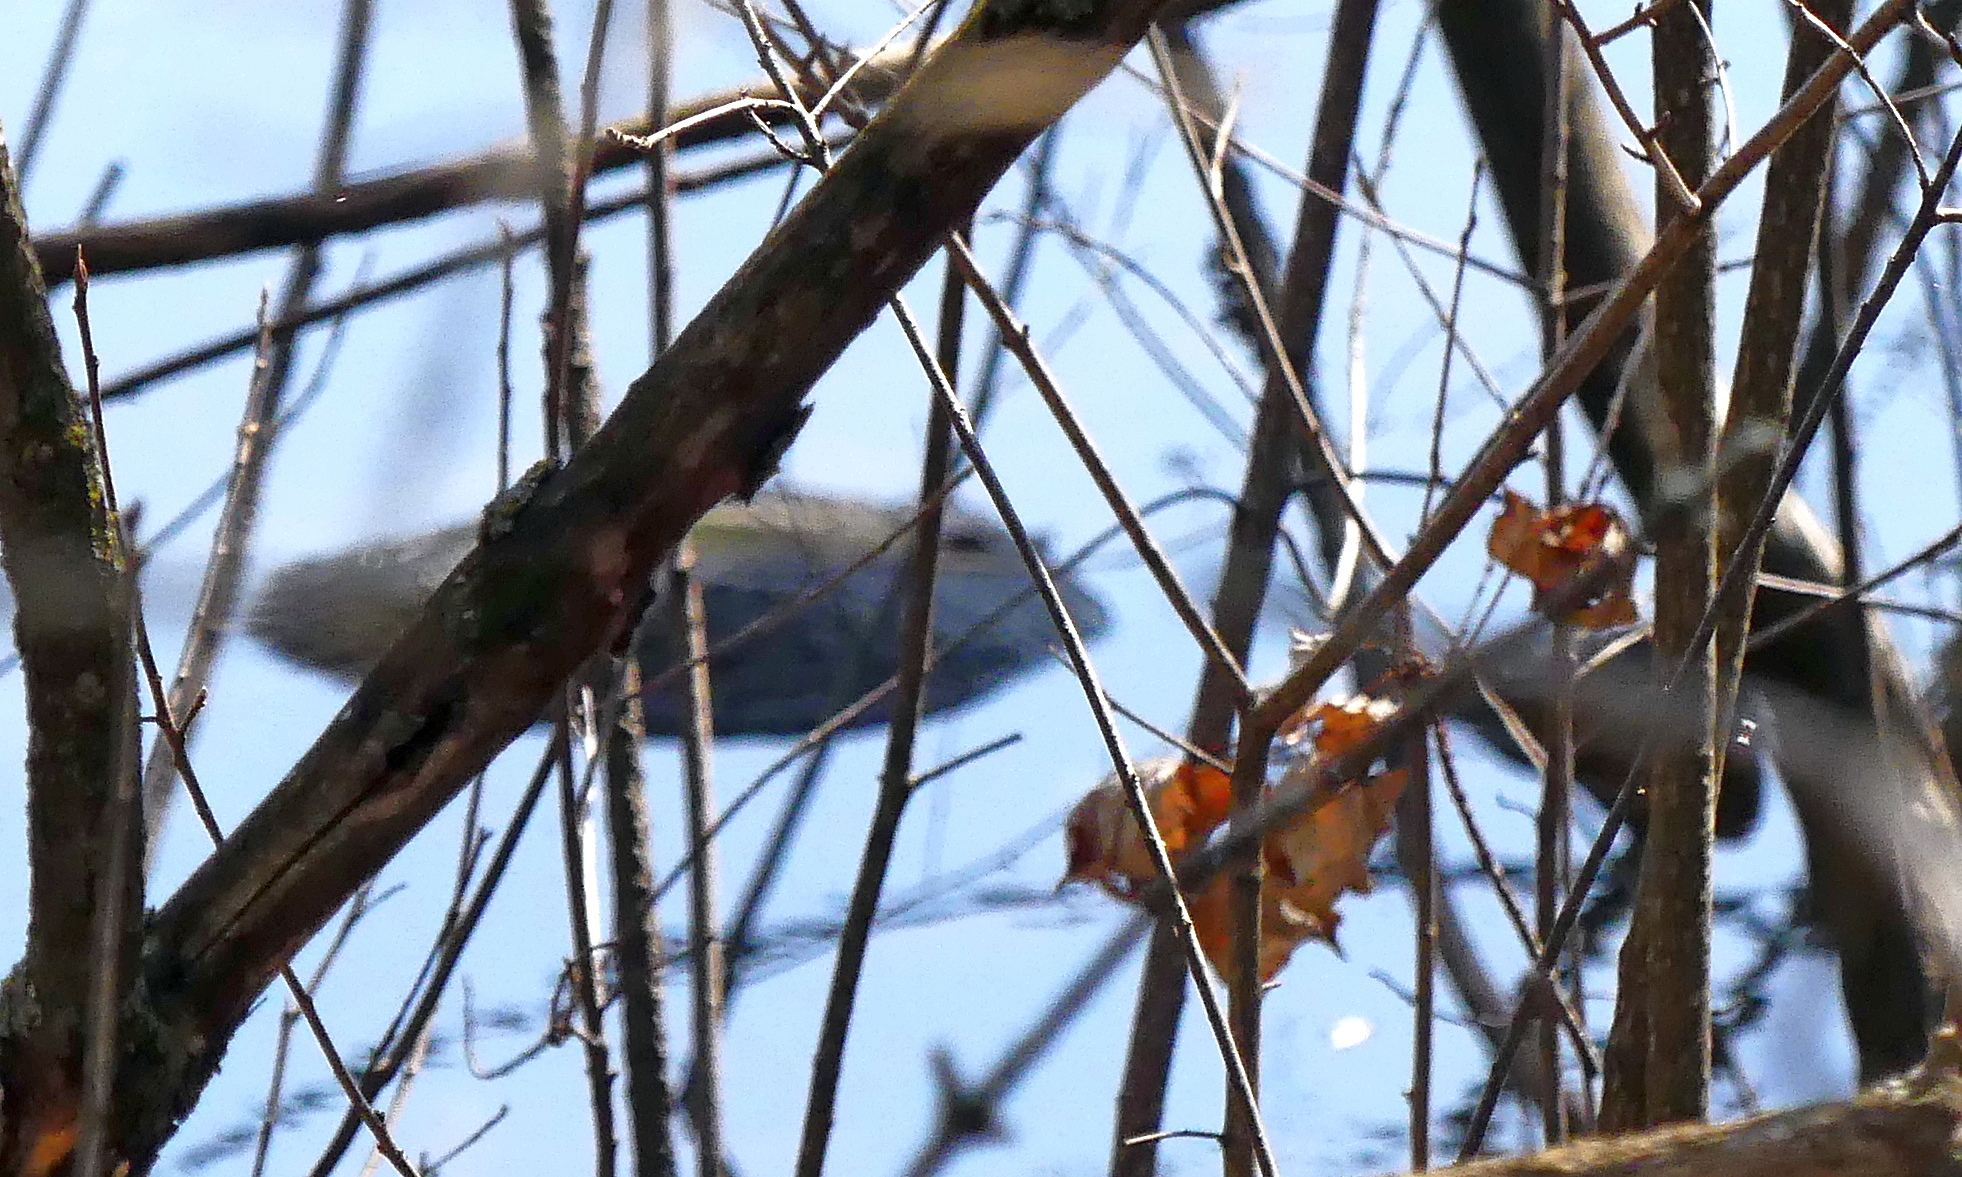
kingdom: Animalia
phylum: Chordata
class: Testudines
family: Chelydridae
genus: Chelydra
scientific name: Chelydra serpentina
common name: Common snapping turtle
